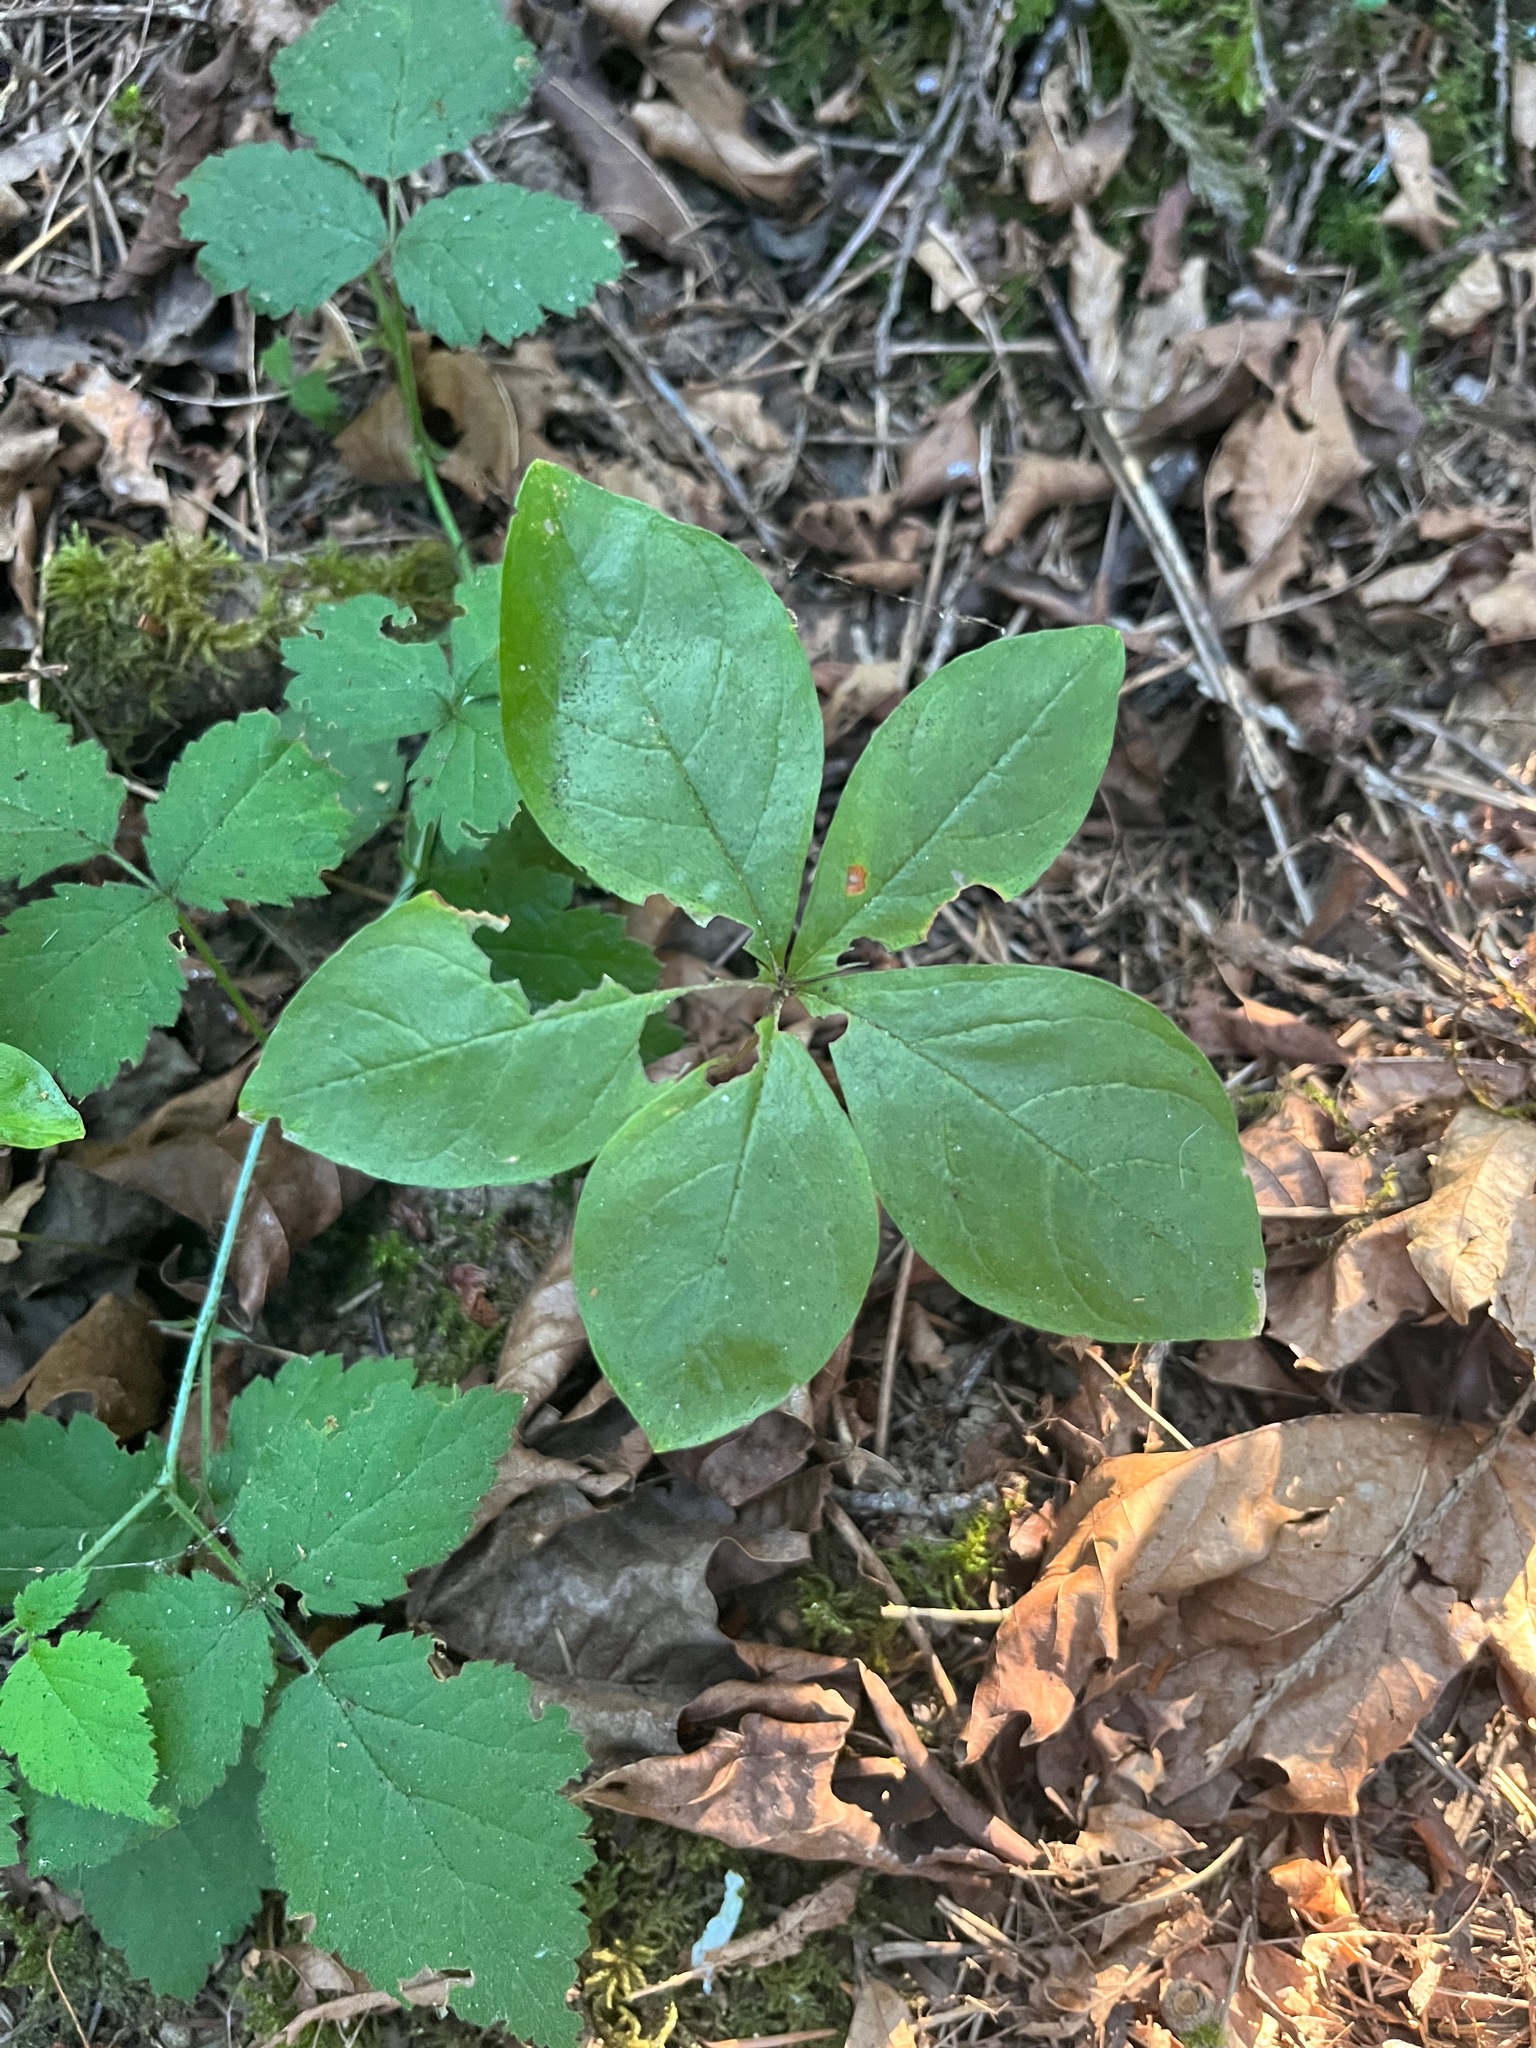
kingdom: Plantae
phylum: Tracheophyta
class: Magnoliopsida
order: Ericales
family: Primulaceae
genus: Lysimachia
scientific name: Lysimachia latifolia
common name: Pacific starflower
